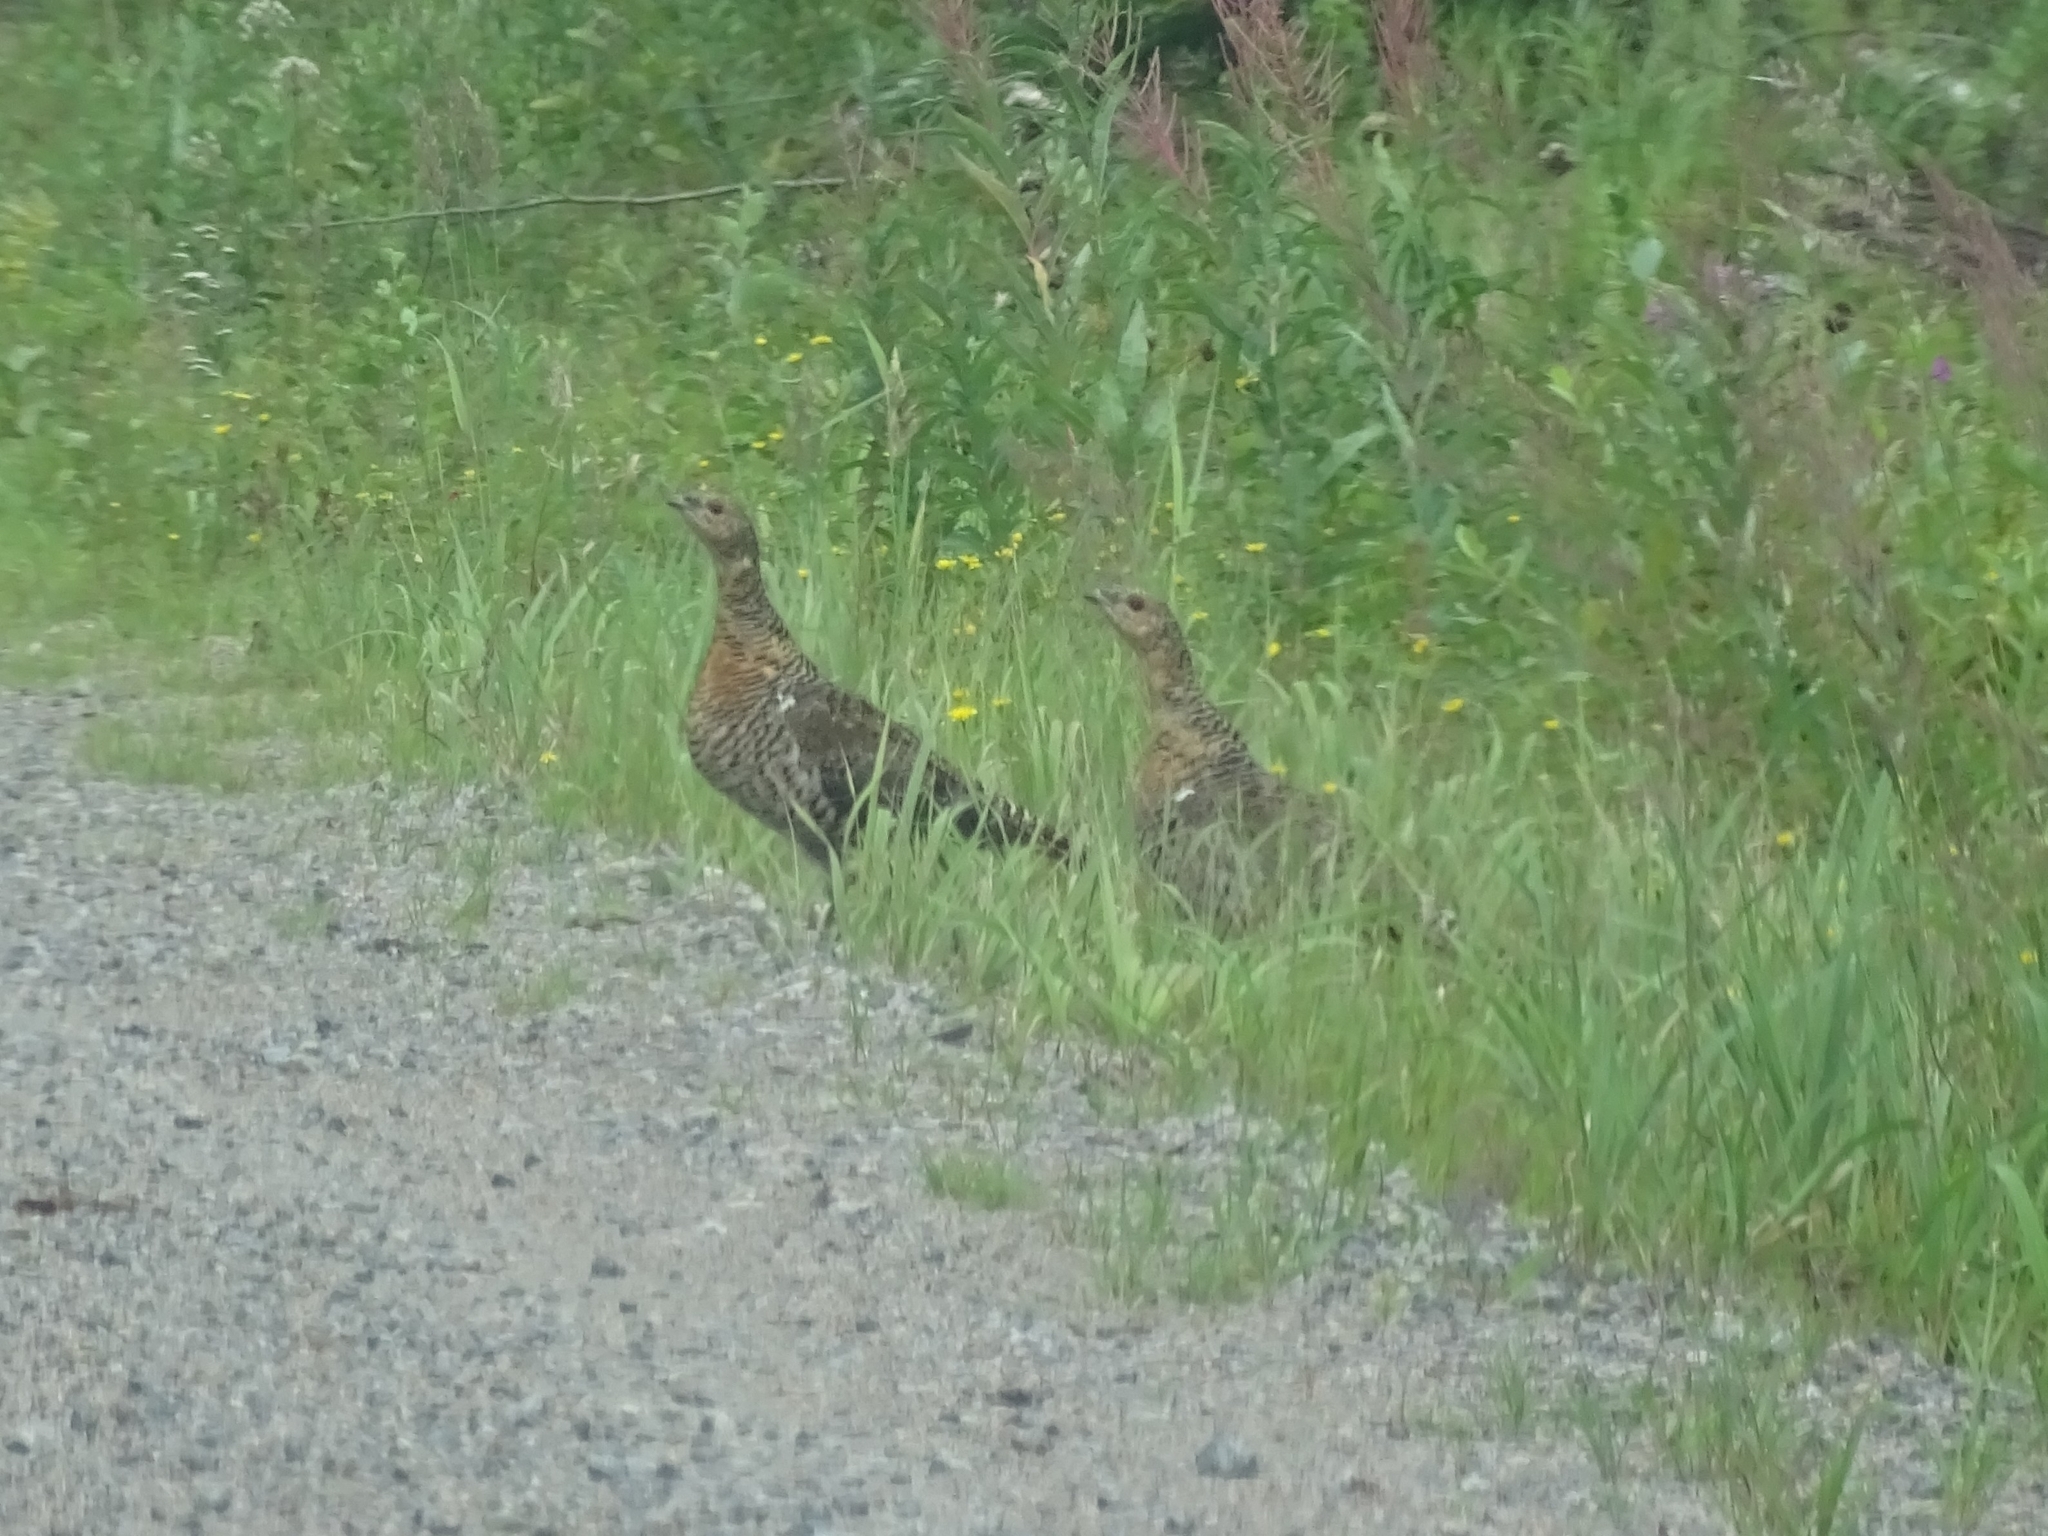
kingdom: Animalia
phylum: Chordata
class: Aves
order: Galliformes
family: Phasianidae
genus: Tetrao
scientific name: Tetrao urogallus
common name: Western capercaillie
